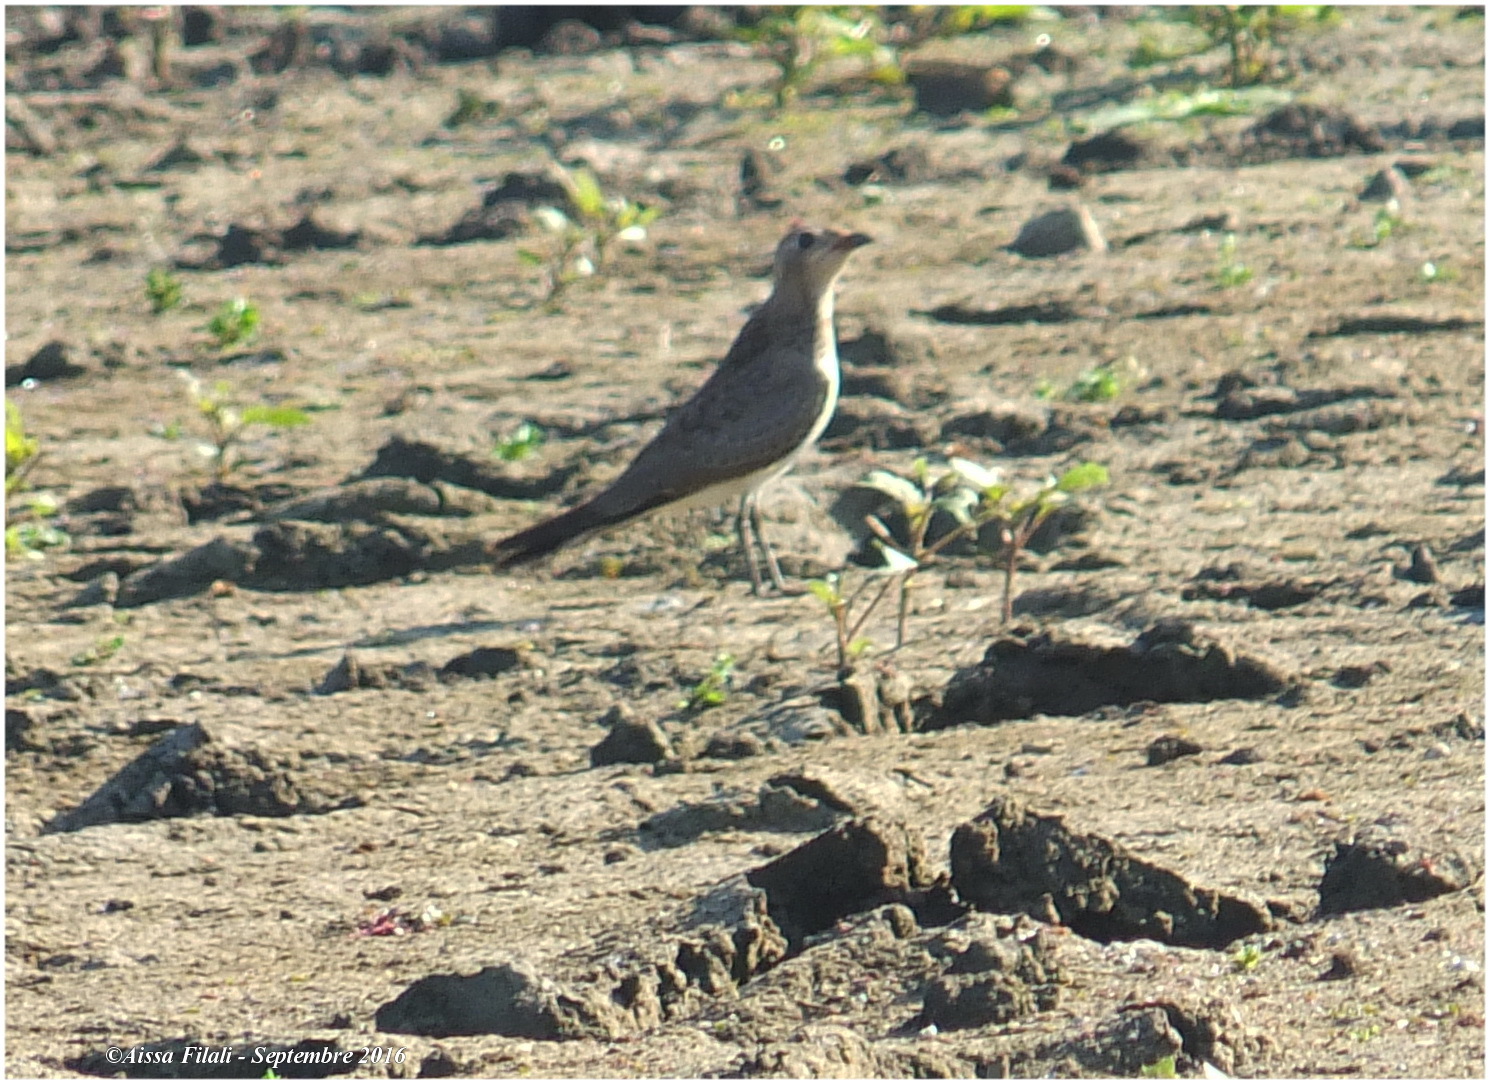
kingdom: Animalia
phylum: Chordata
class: Aves
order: Charadriiformes
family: Glareolidae
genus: Glareola
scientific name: Glareola pratincola
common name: Collared pratincole
